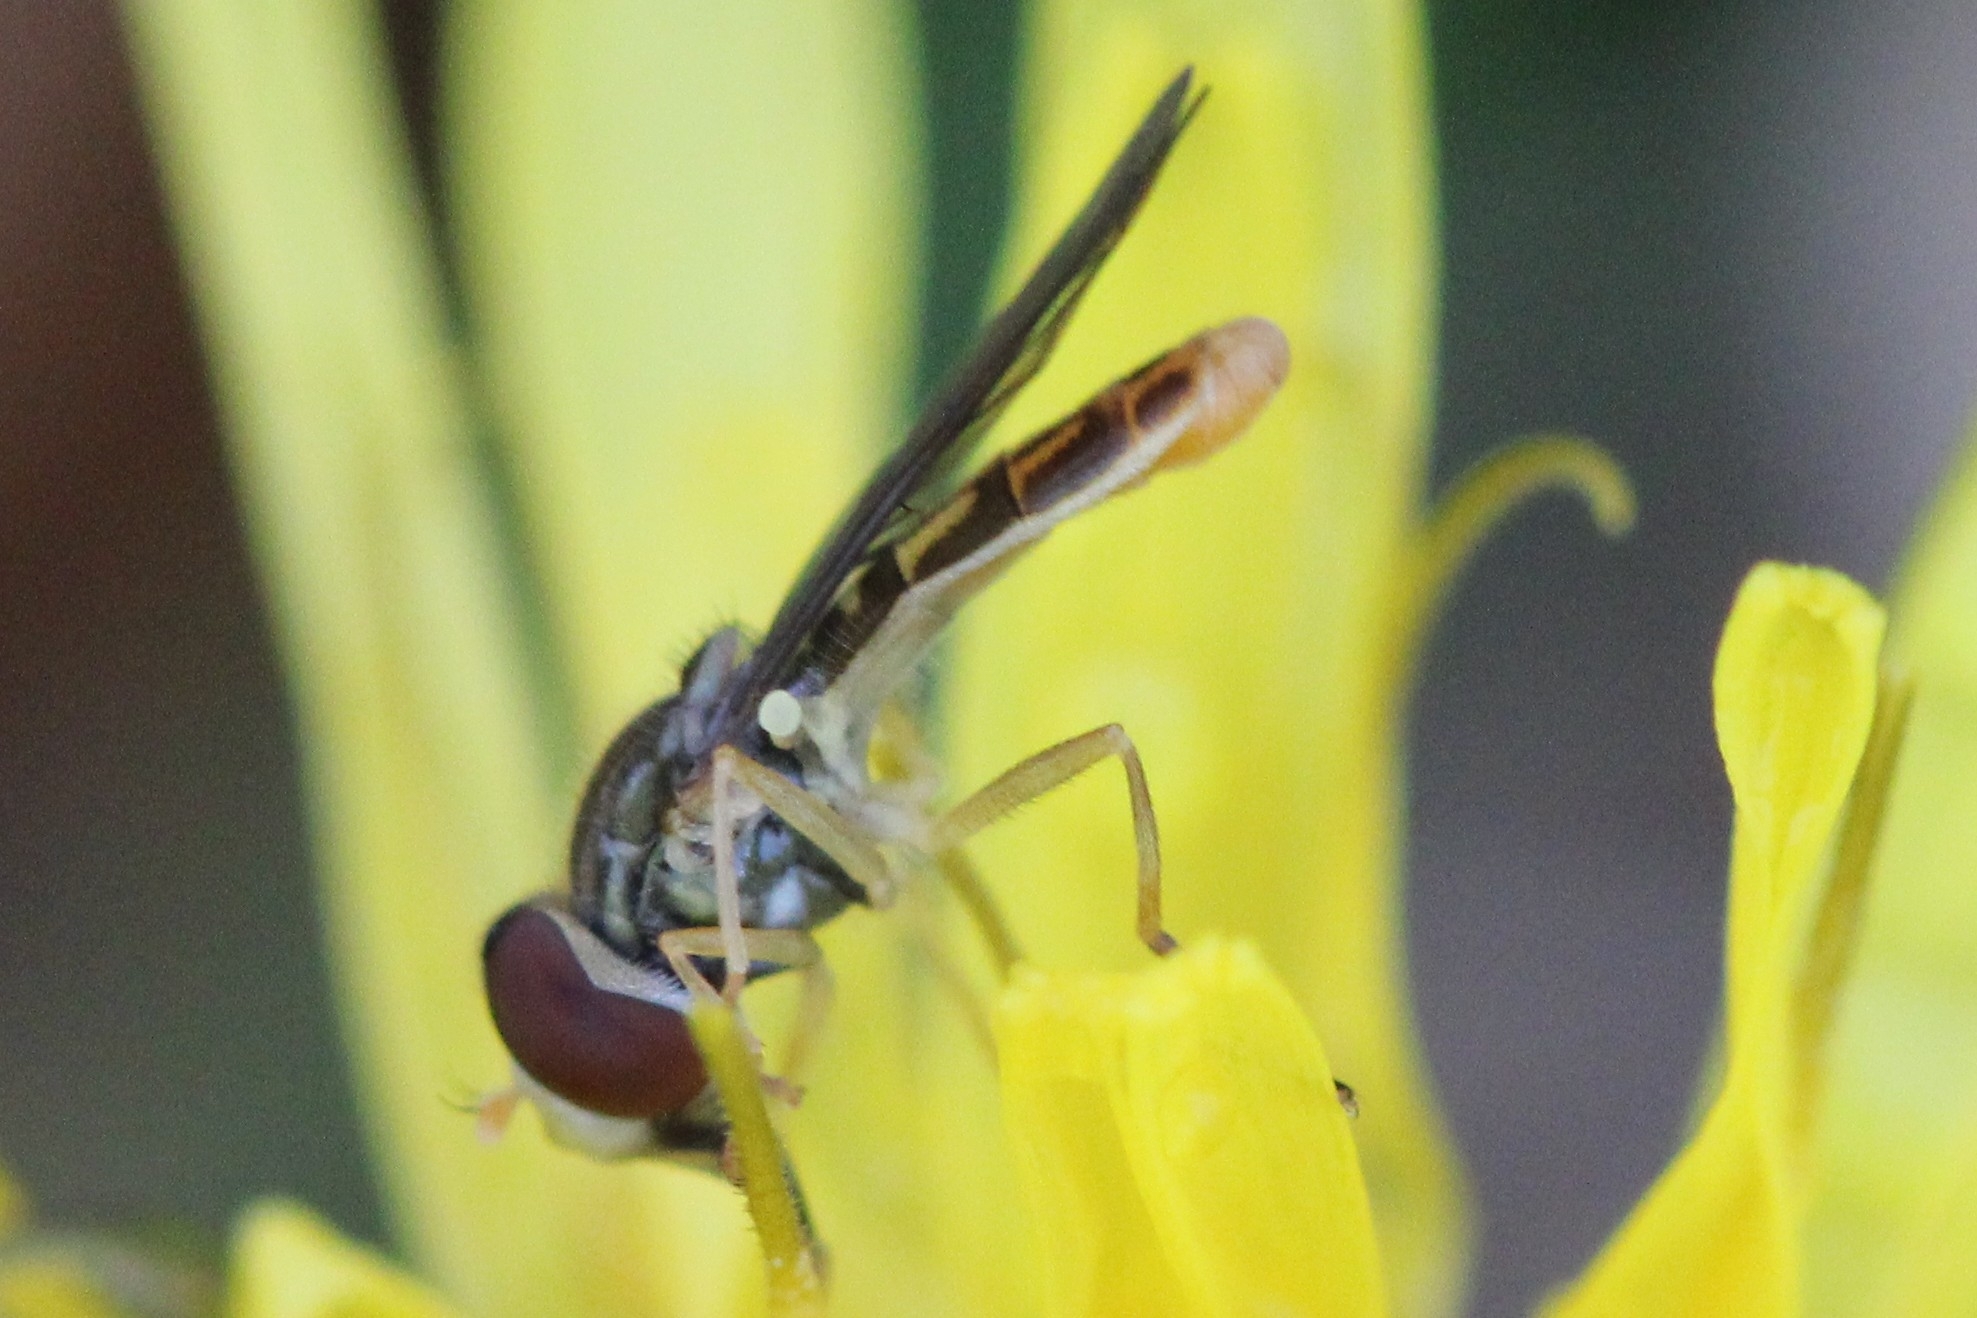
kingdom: Animalia
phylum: Arthropoda
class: Insecta
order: Diptera
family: Syrphidae
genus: Toxomerus
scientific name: Toxomerus marginatus
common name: Syrphid fly
